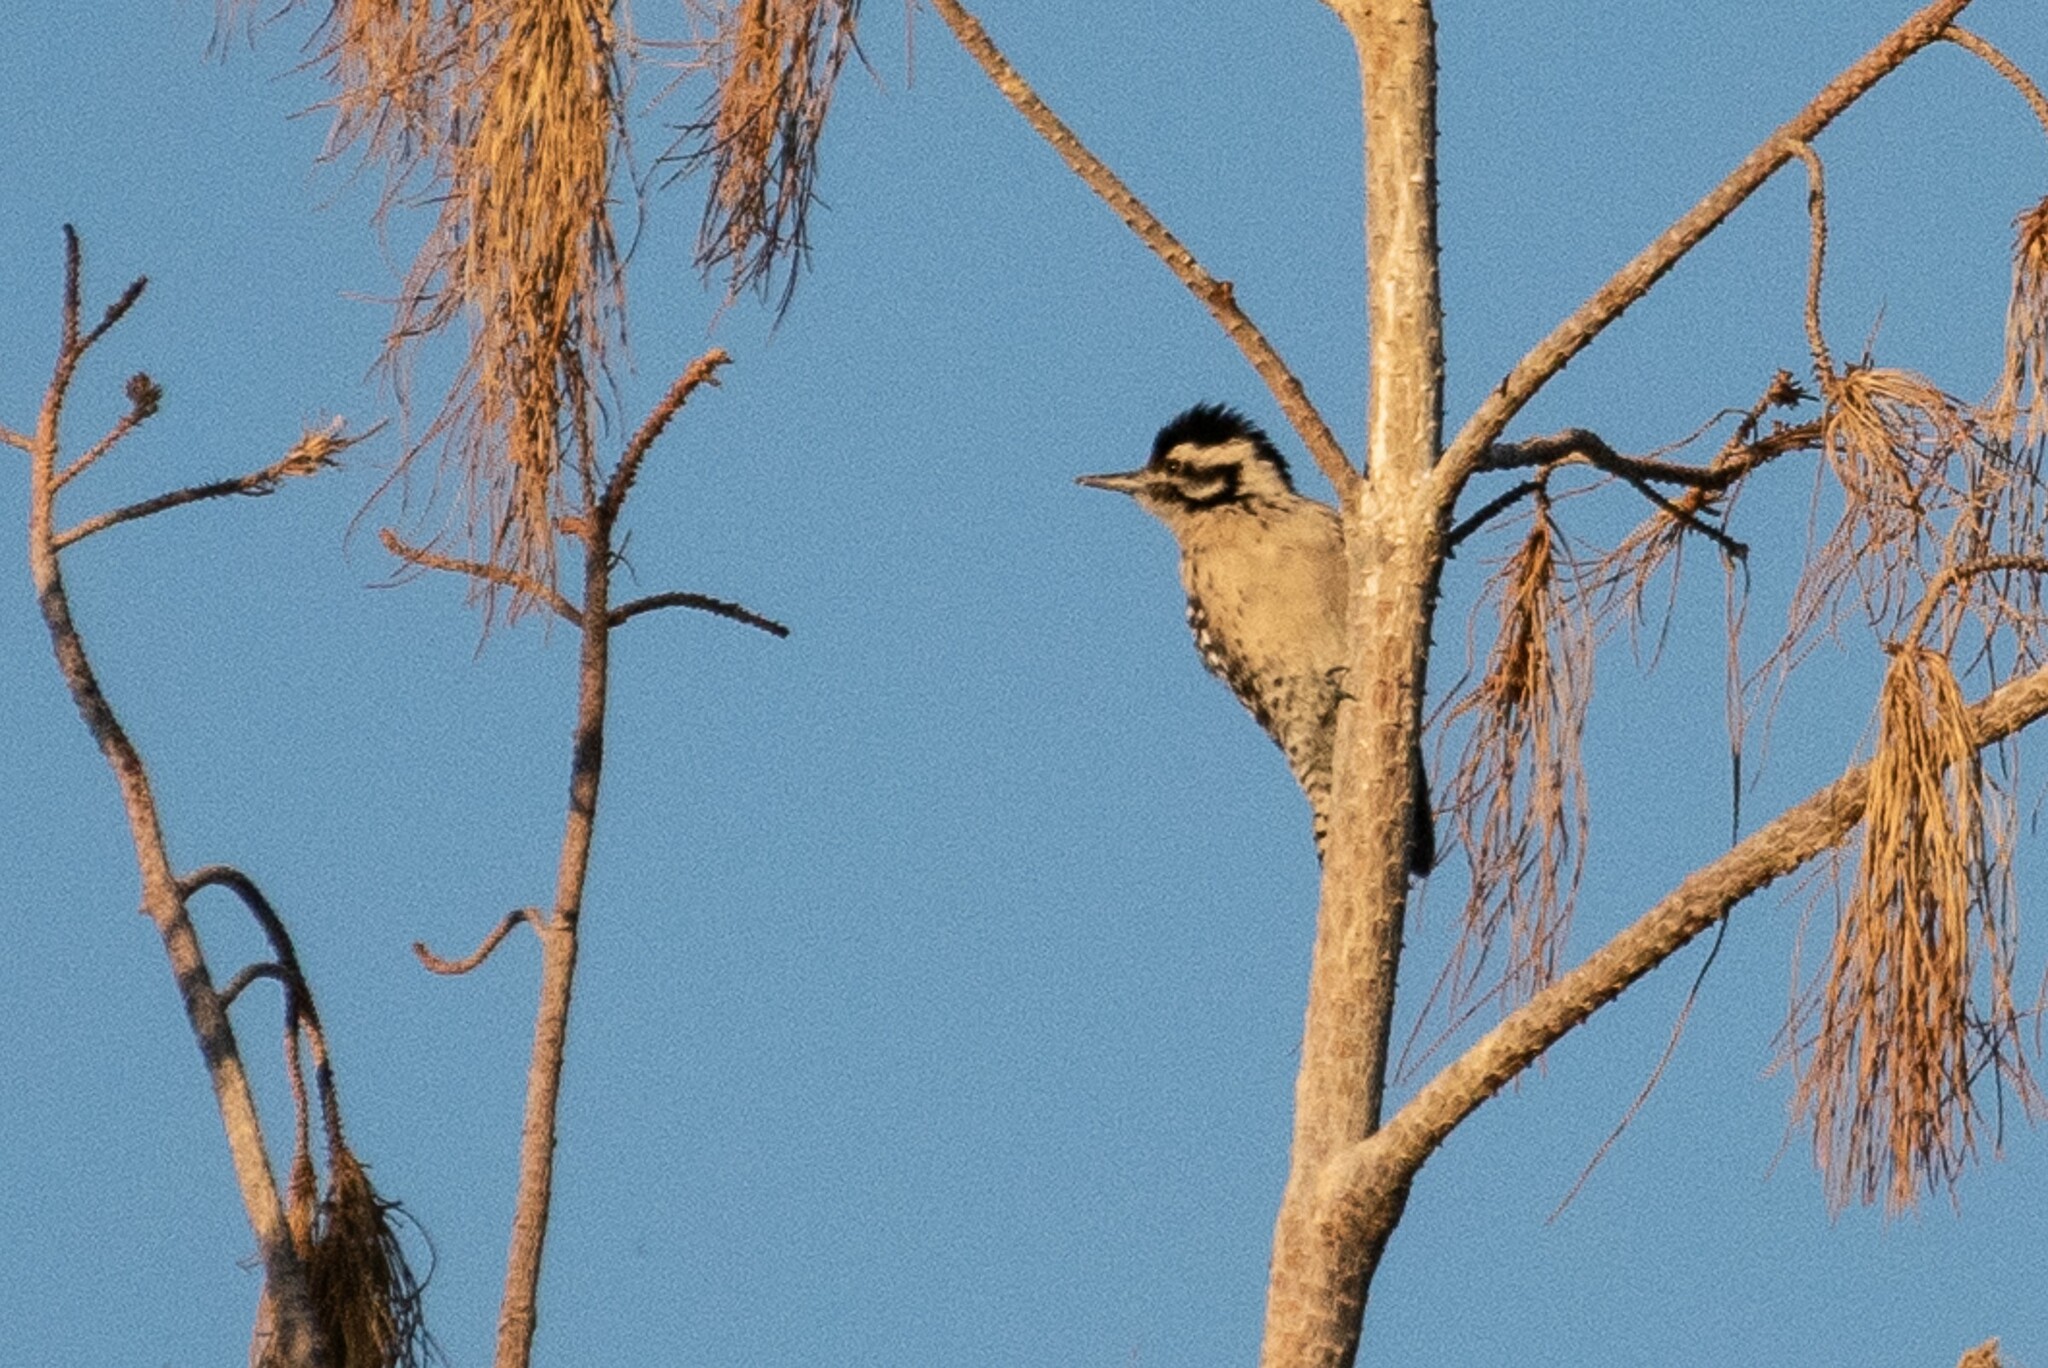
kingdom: Animalia
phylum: Chordata
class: Aves
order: Piciformes
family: Picidae
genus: Dryobates
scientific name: Dryobates scalaris
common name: Ladder-backed woodpecker
